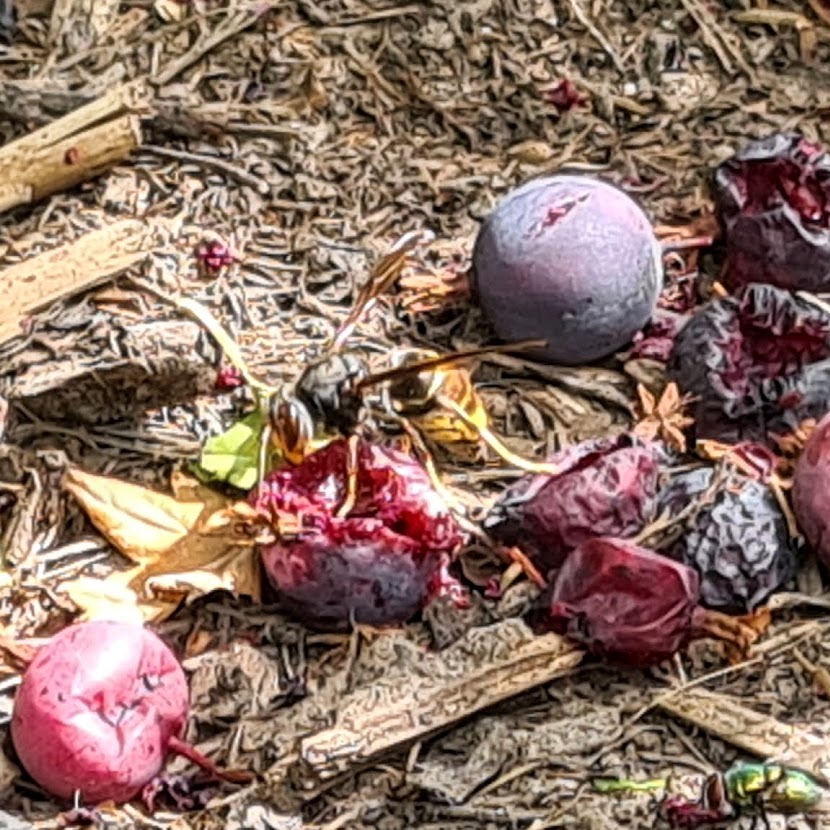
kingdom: Animalia
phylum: Arthropoda
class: Insecta
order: Hymenoptera
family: Vespidae
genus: Vespa
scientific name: Vespa velutina
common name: Asian hornet
